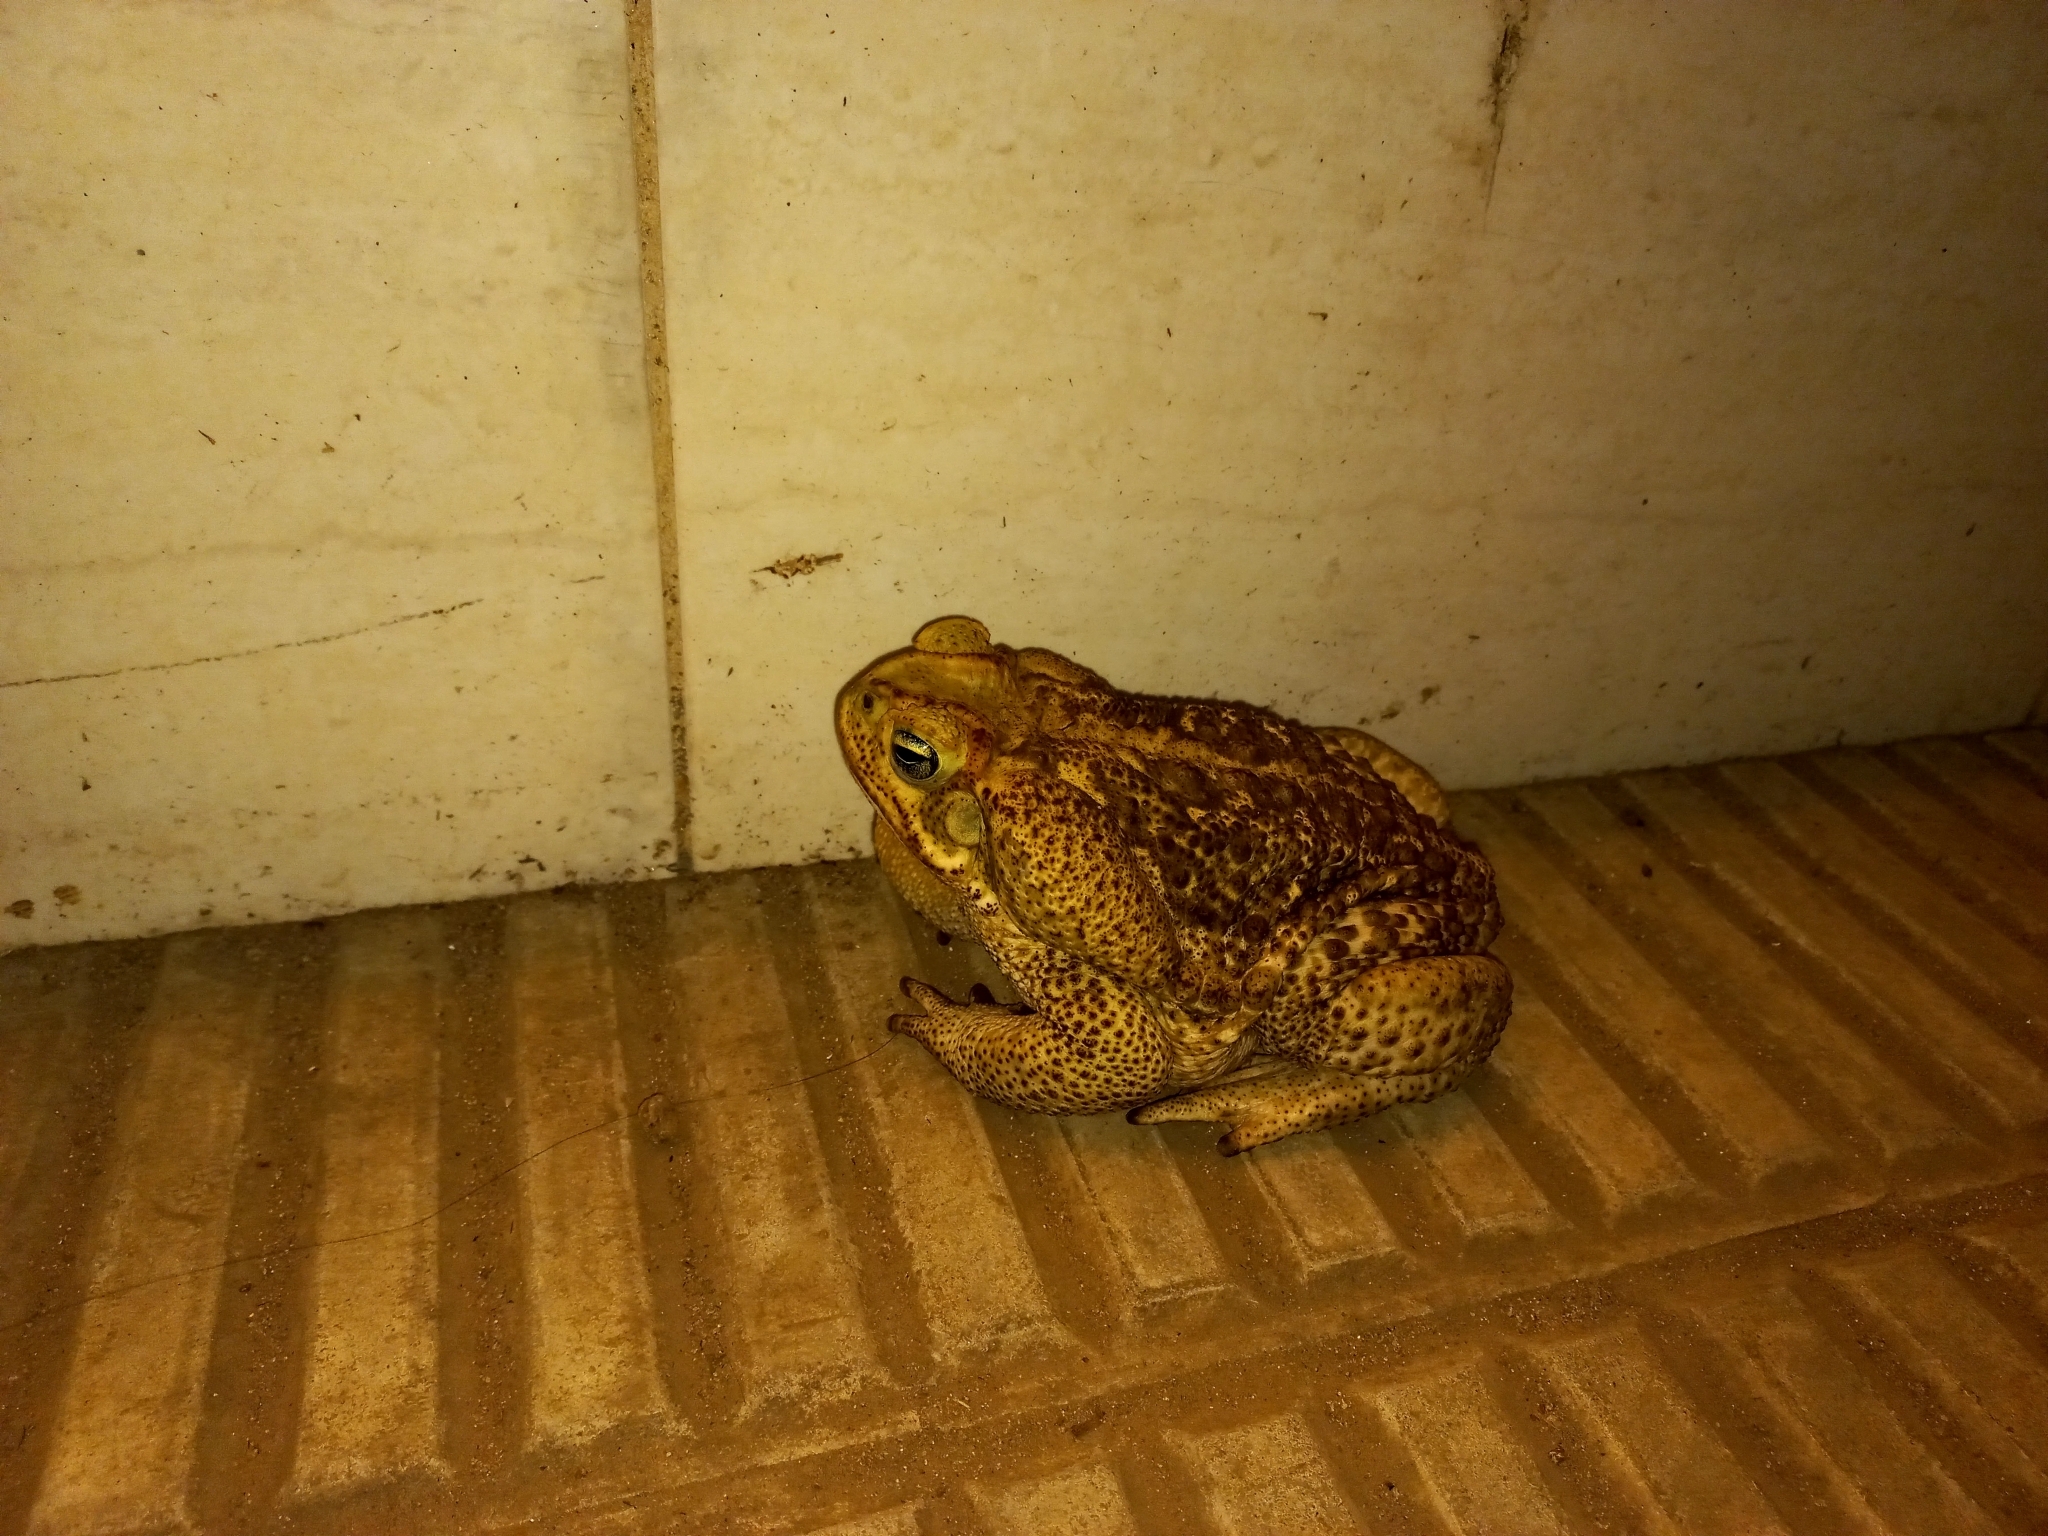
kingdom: Animalia
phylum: Chordata
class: Amphibia
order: Anura
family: Bufonidae
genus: Rhinella
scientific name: Rhinella diptycha
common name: Cope's toad
